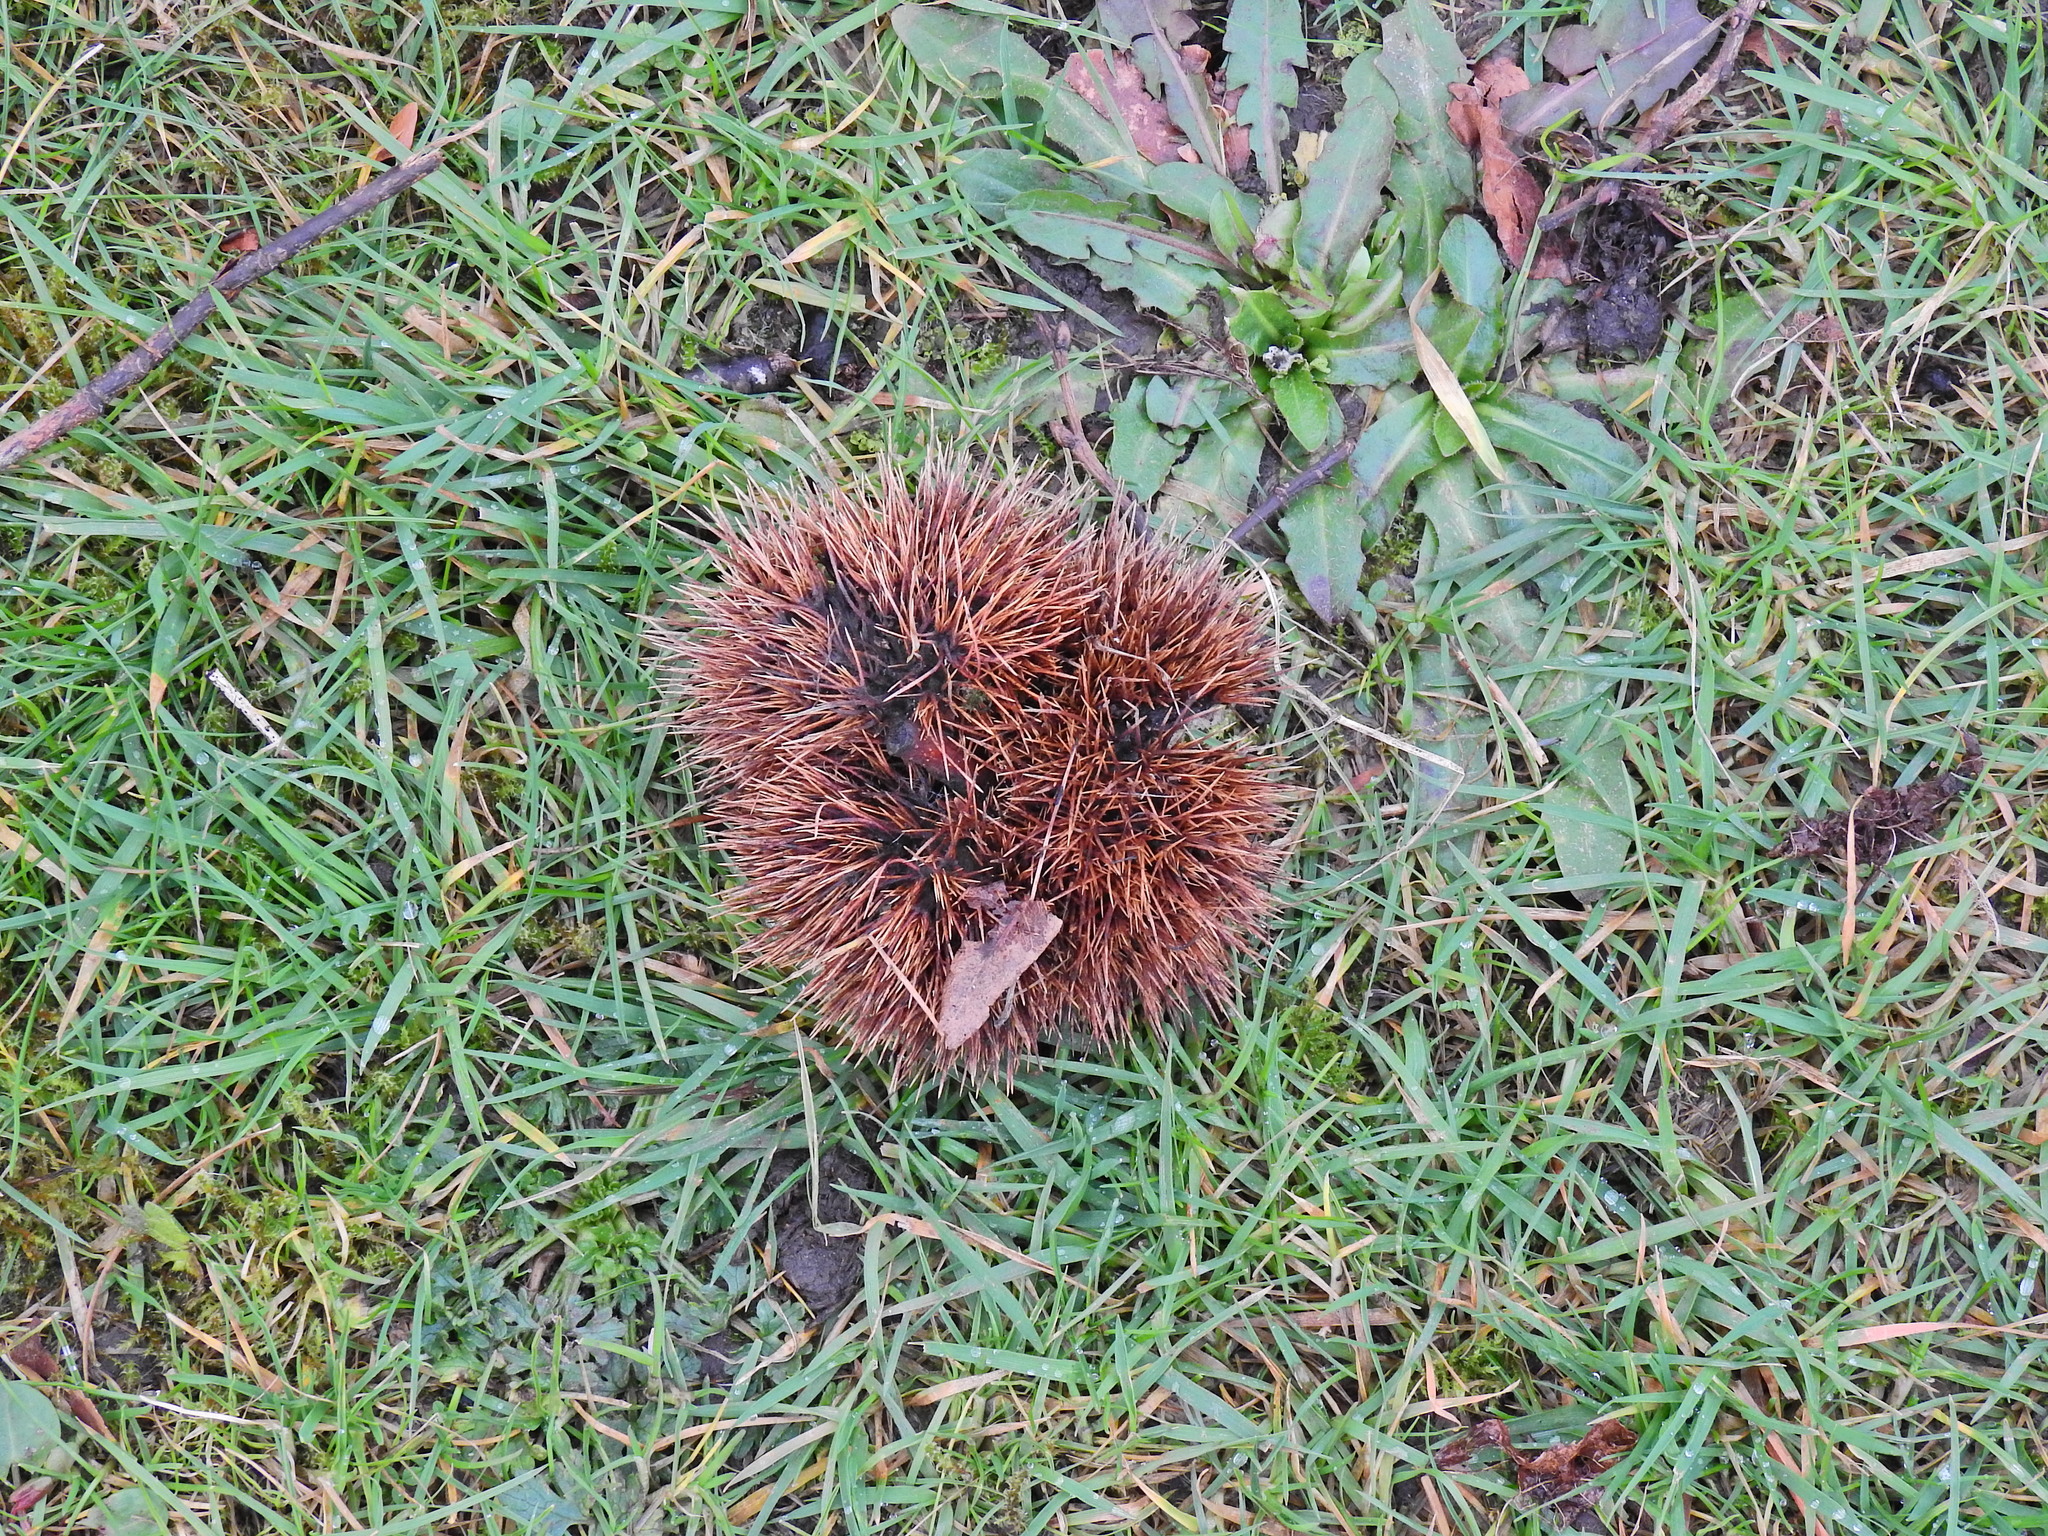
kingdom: Plantae
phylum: Tracheophyta
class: Magnoliopsida
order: Fagales
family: Fagaceae
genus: Castanea
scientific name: Castanea sativa
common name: Sweet chestnut
